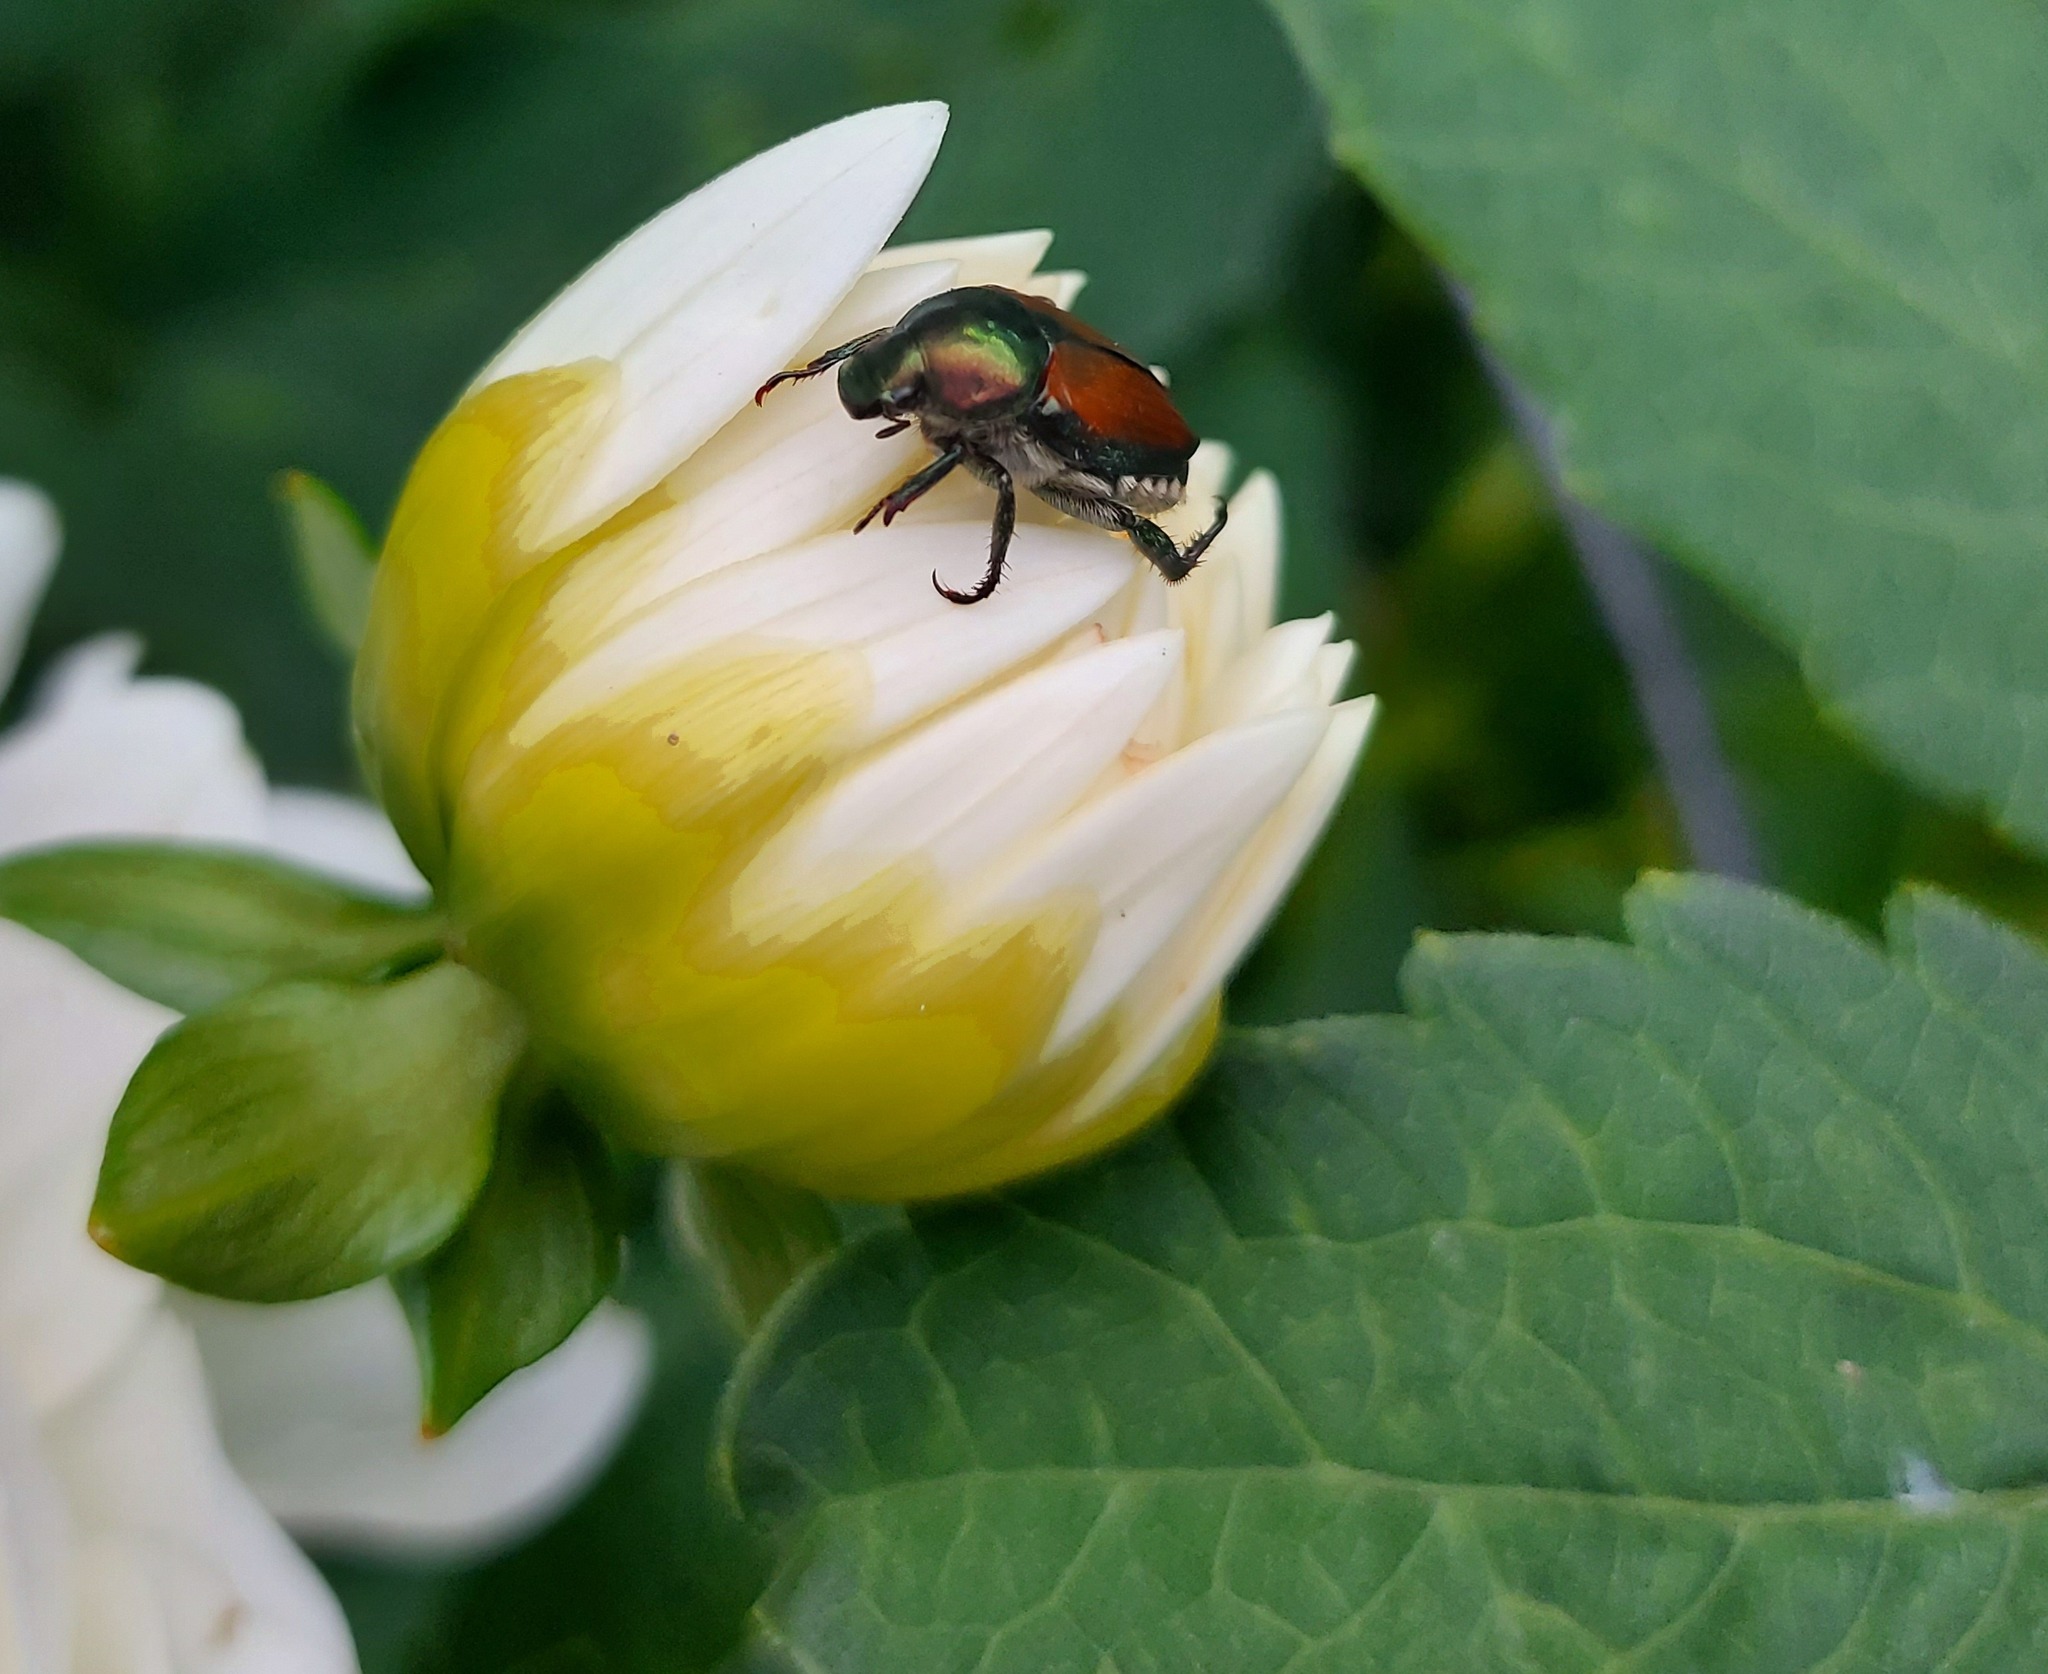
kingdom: Animalia
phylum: Arthropoda
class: Insecta
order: Coleoptera
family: Scarabaeidae
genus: Popillia
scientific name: Popillia japonica
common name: Japanese beetle
